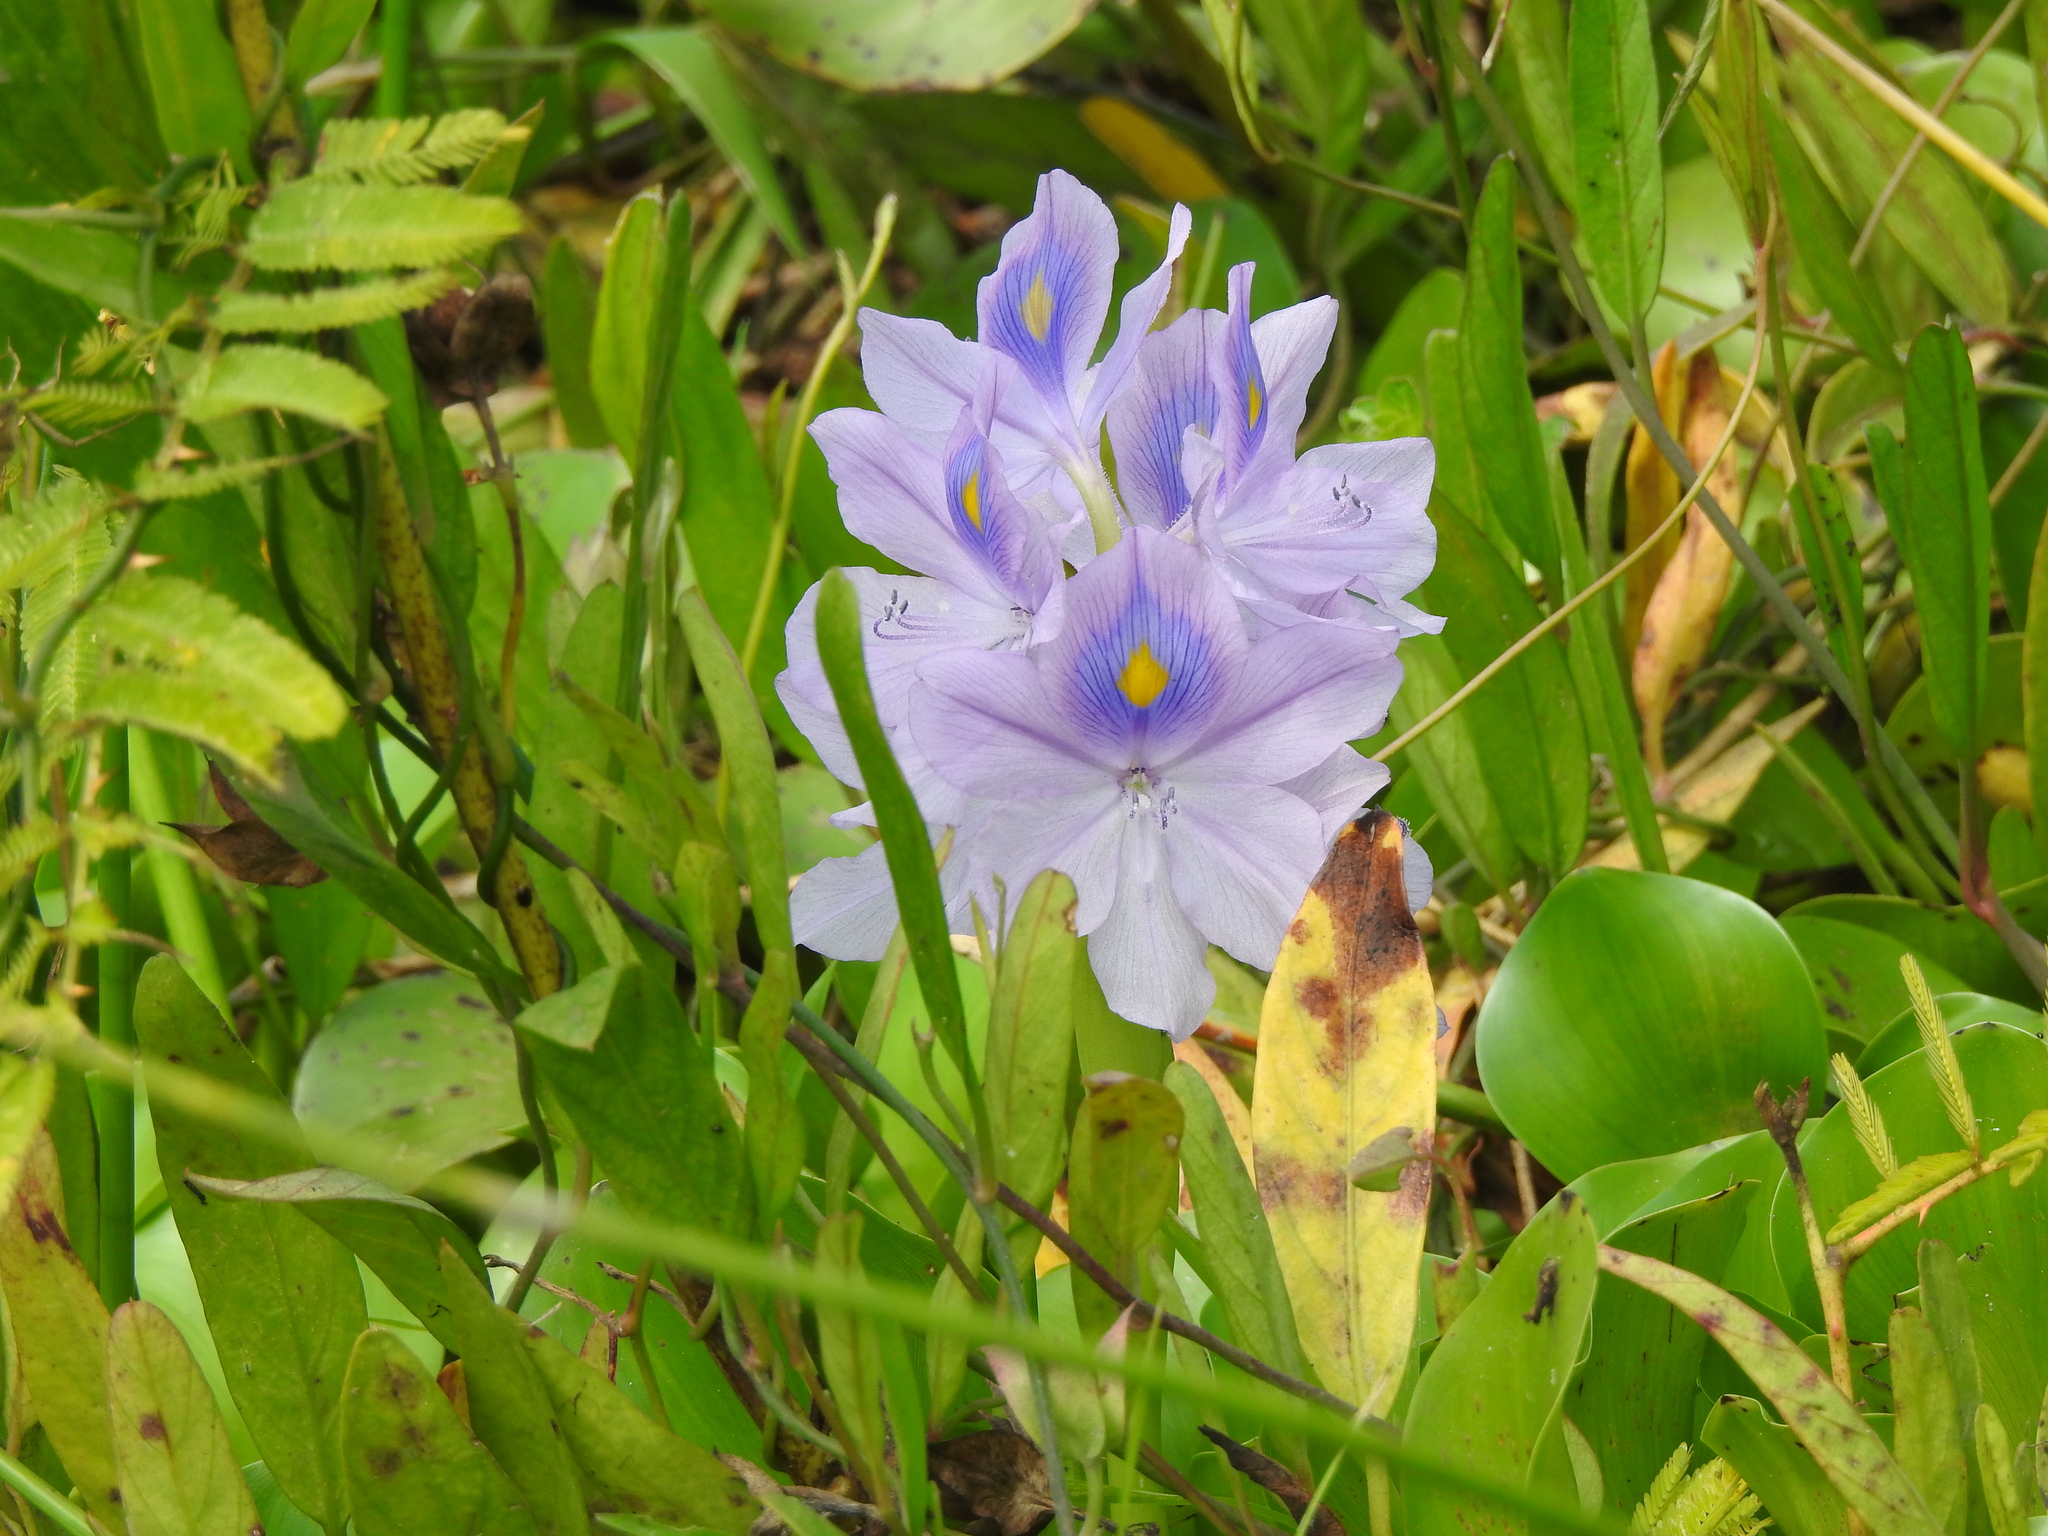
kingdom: Plantae
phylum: Tracheophyta
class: Liliopsida
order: Commelinales
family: Pontederiaceae
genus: Pontederia
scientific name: Pontederia crassipes
